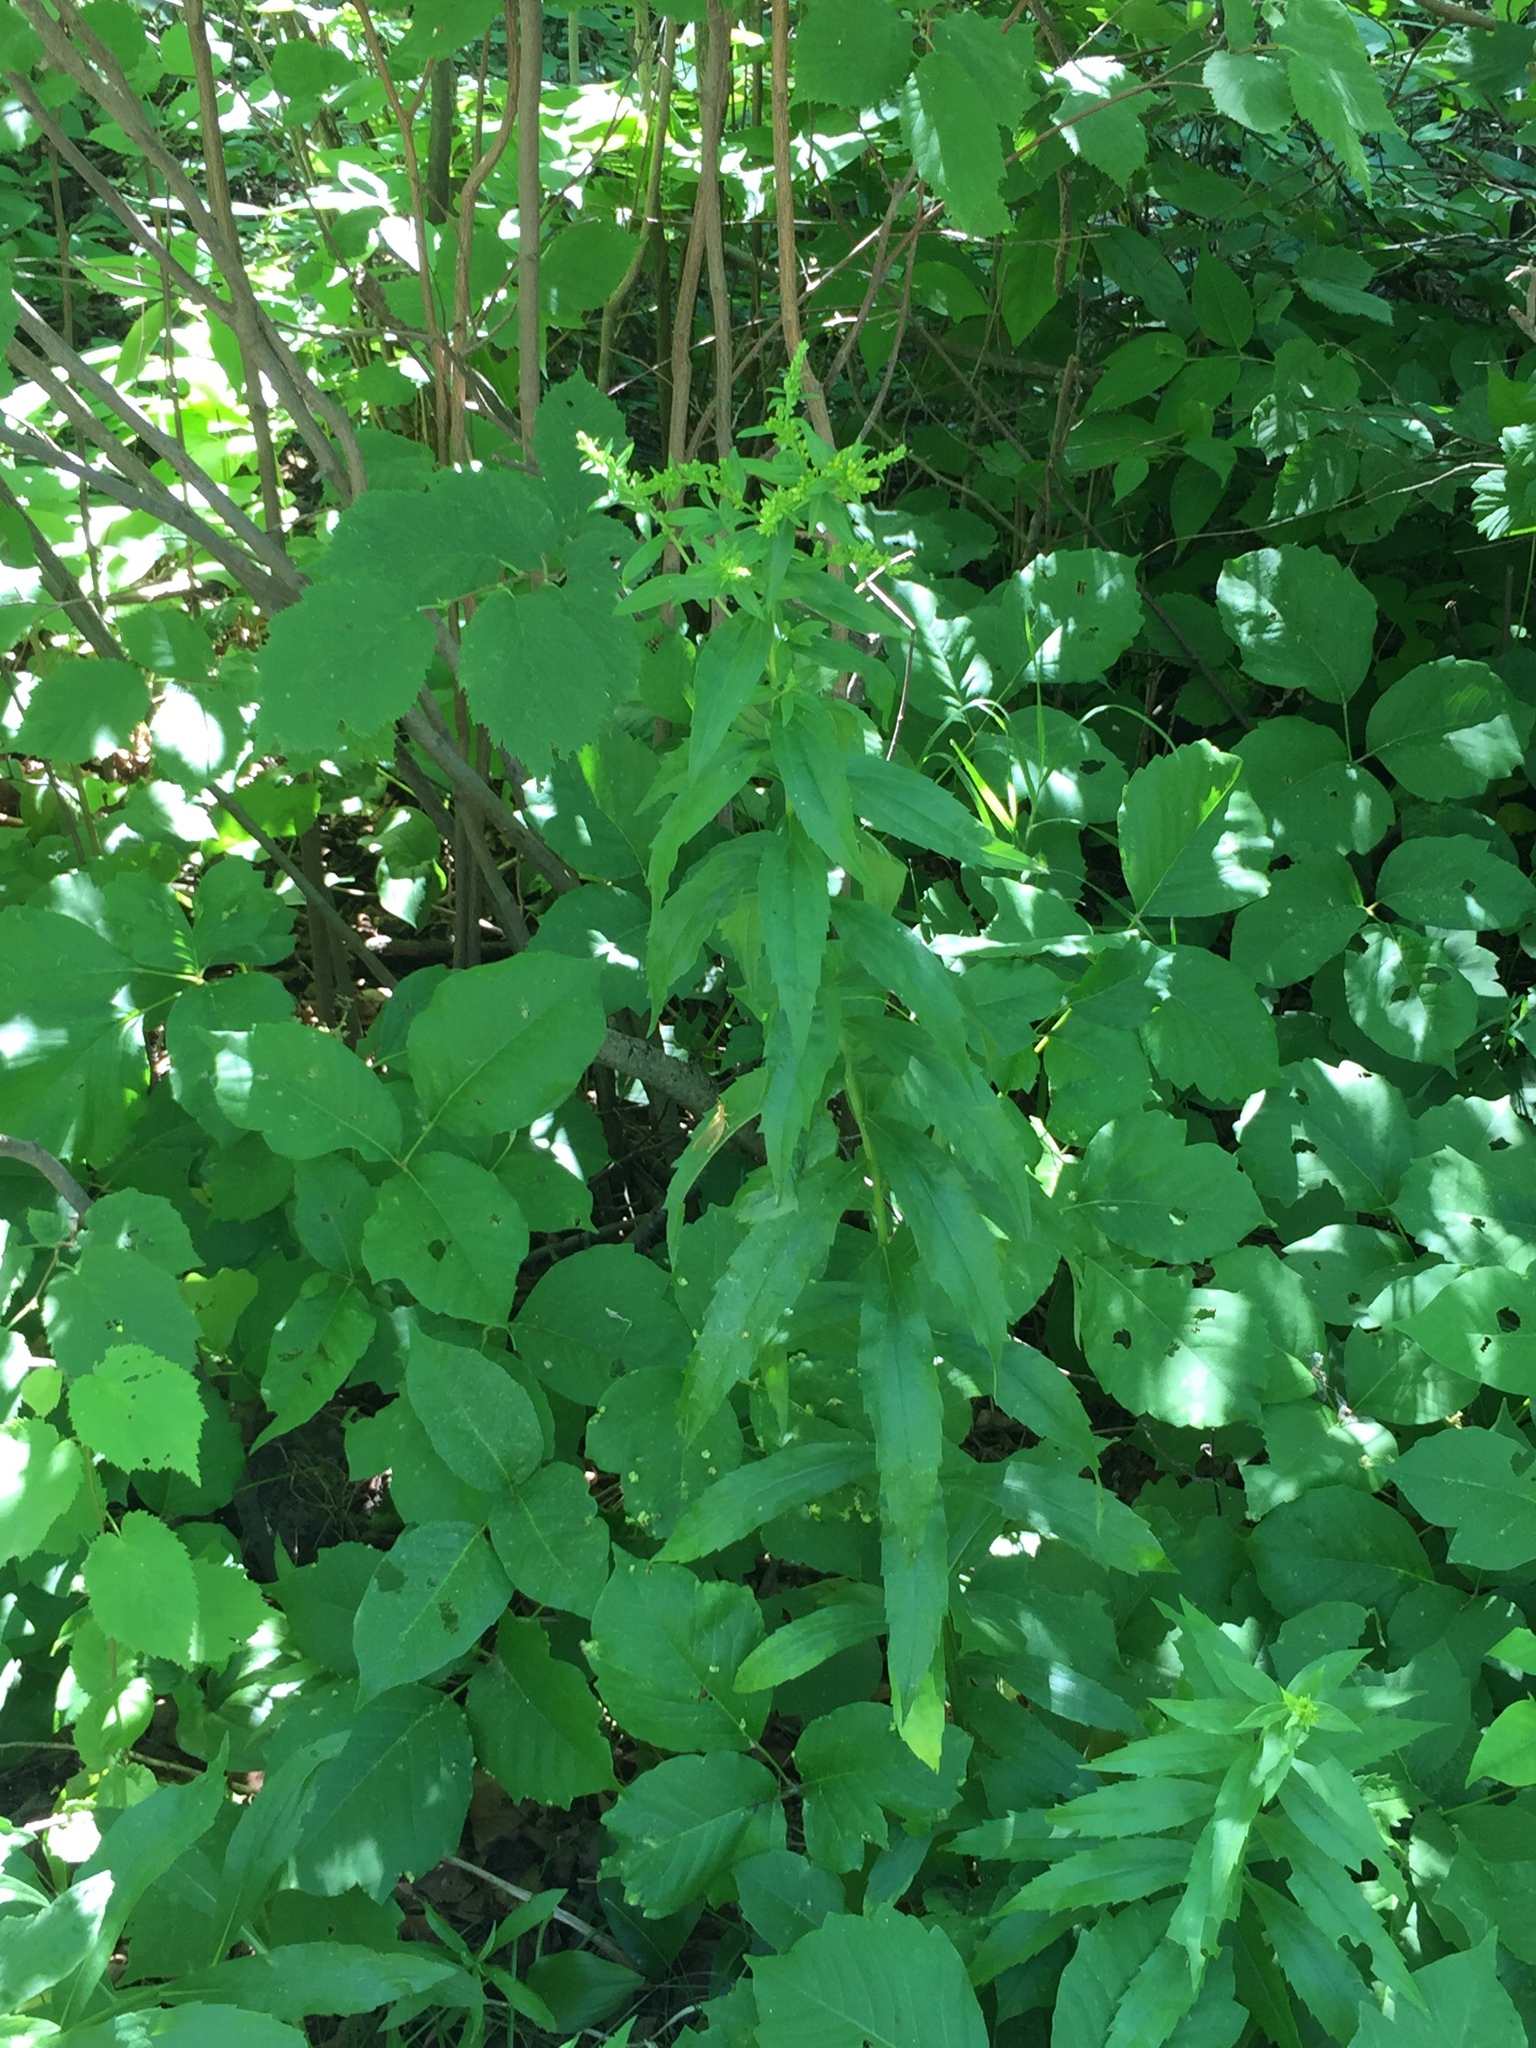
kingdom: Plantae
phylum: Tracheophyta
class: Magnoliopsida
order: Asterales
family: Asteraceae
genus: Solidago
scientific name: Solidago missouriensis
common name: Prairie goldenrod
